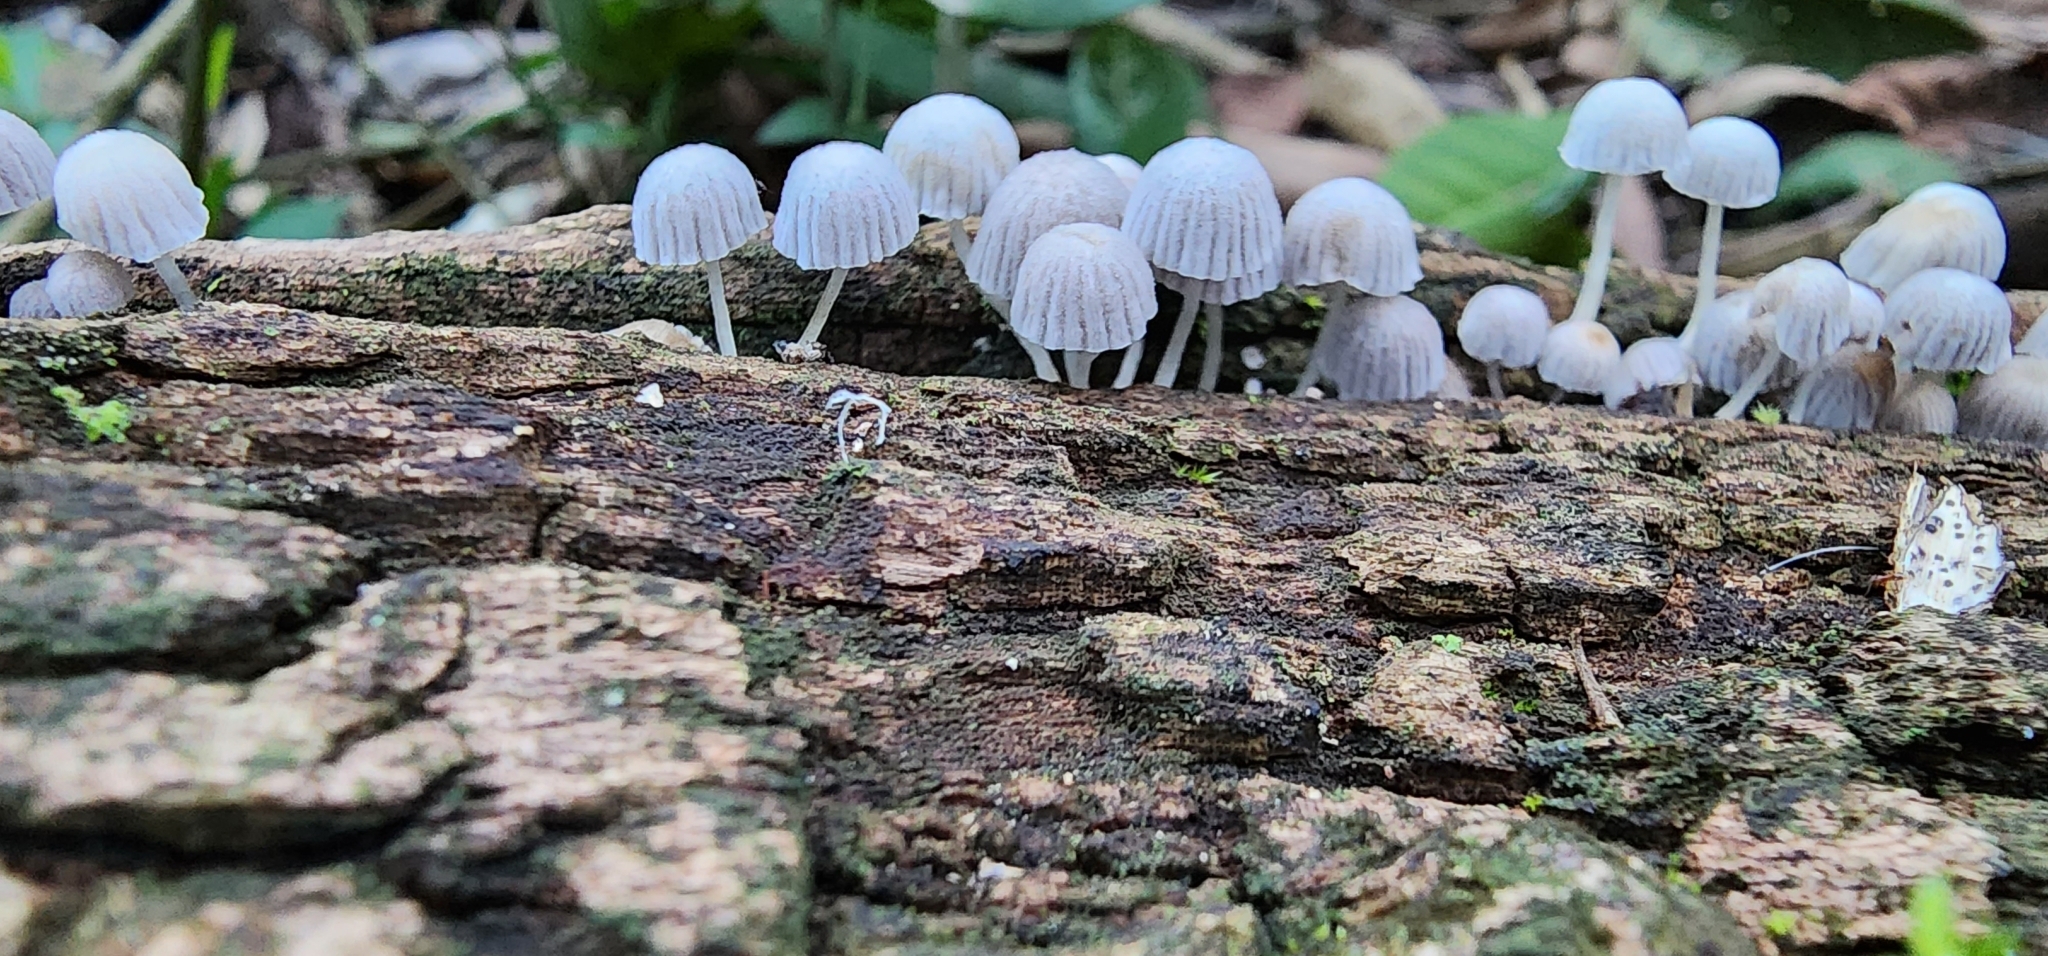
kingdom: Fungi
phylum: Basidiomycota
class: Agaricomycetes
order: Agaricales
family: Psathyrellaceae
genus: Coprinellus
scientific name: Coprinellus disseminatus
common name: Fairies' bonnets
